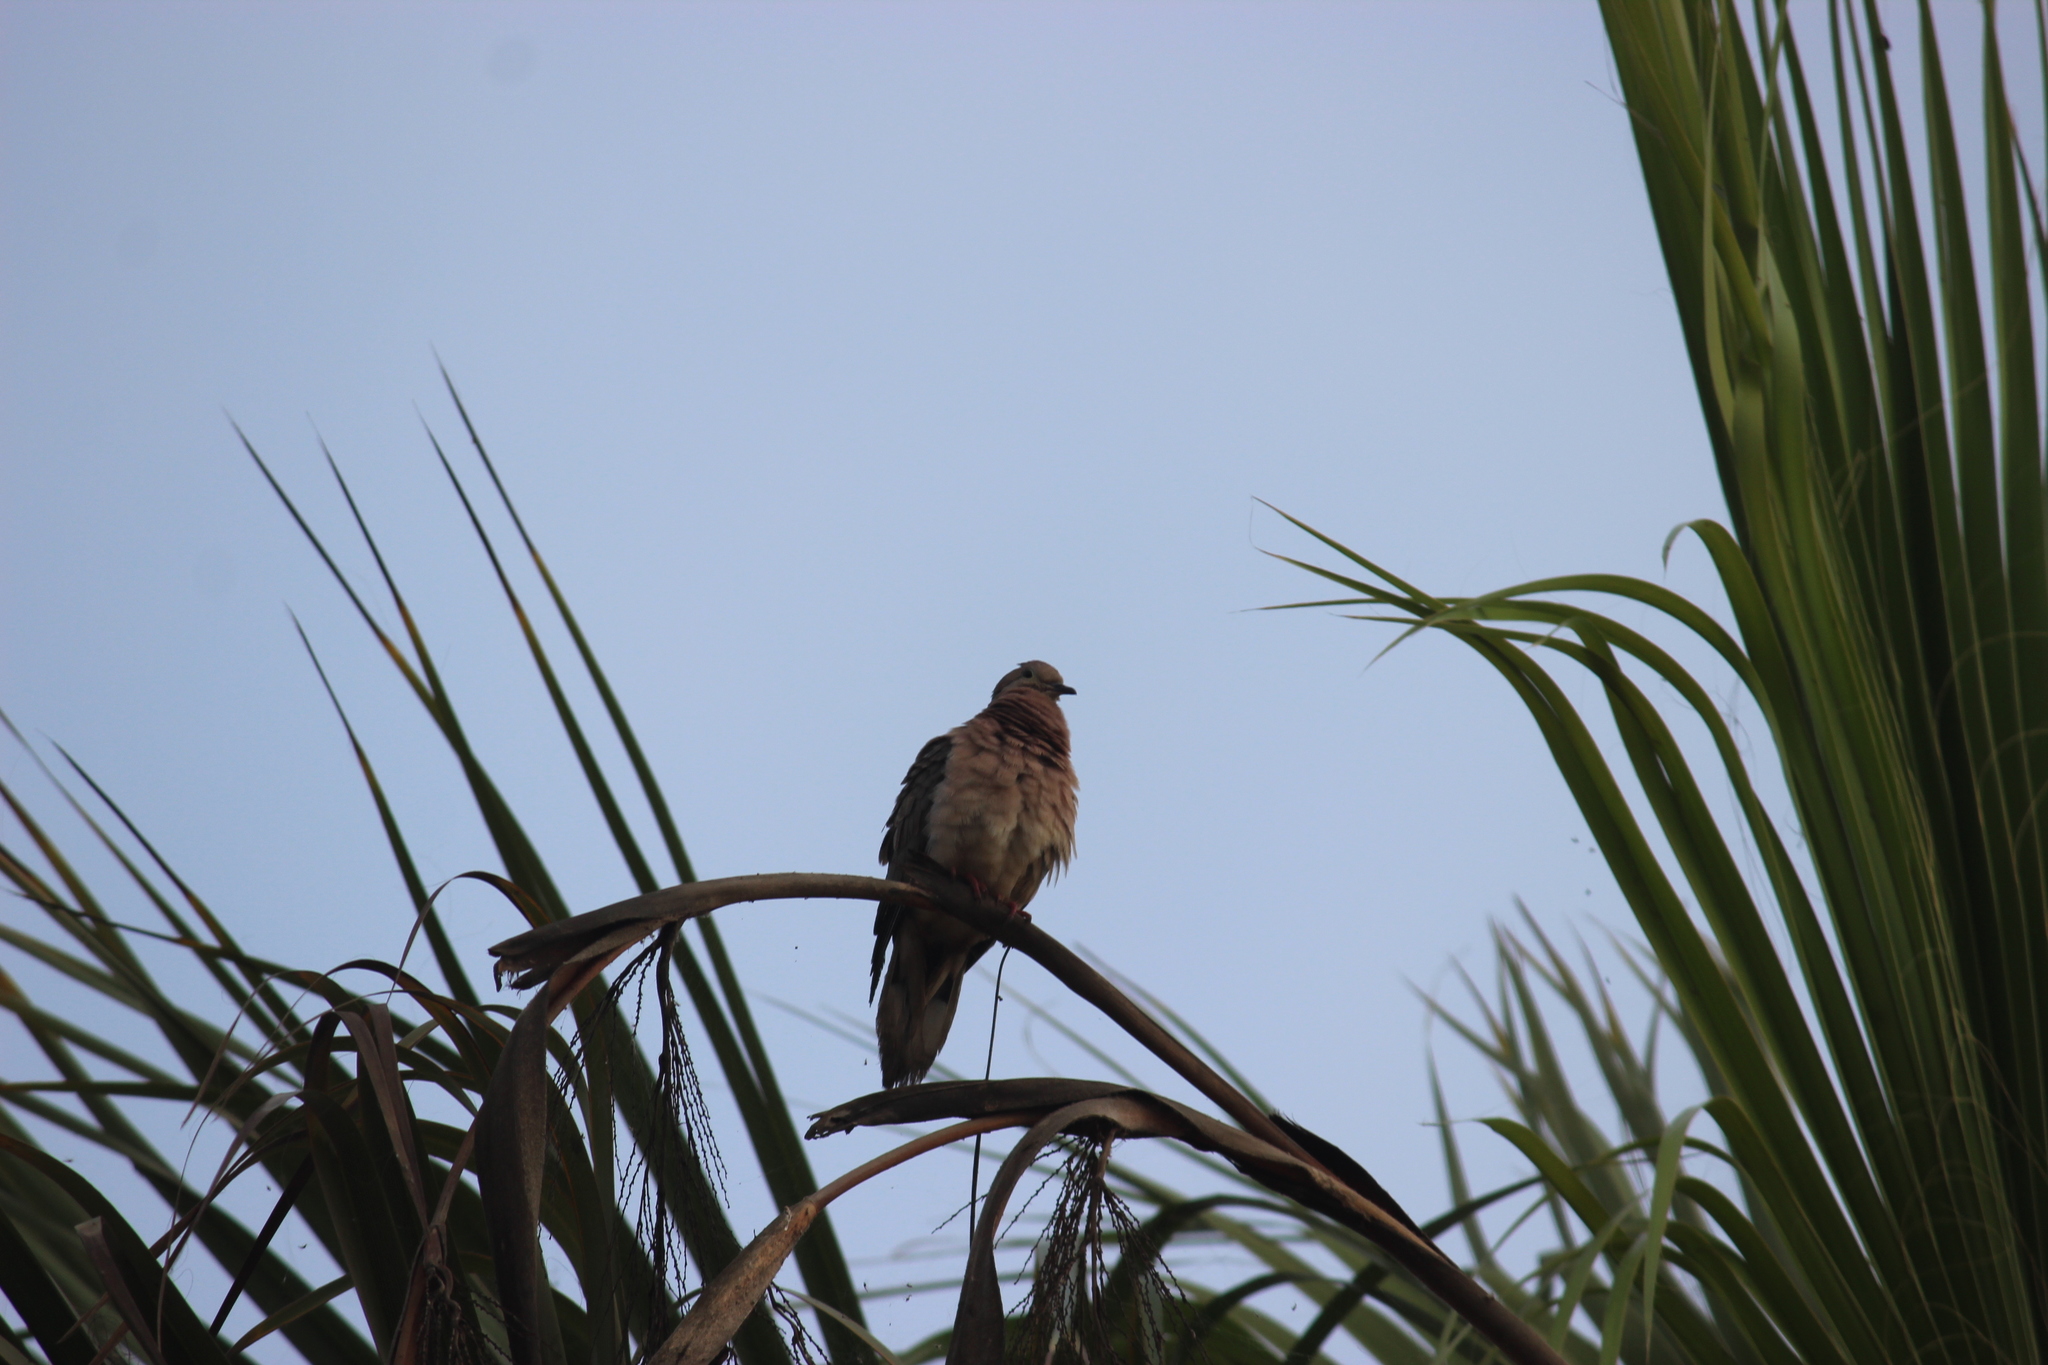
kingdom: Animalia
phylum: Chordata
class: Aves
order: Columbiformes
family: Columbidae
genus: Zenaida
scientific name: Zenaida auriculata
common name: Eared dove
